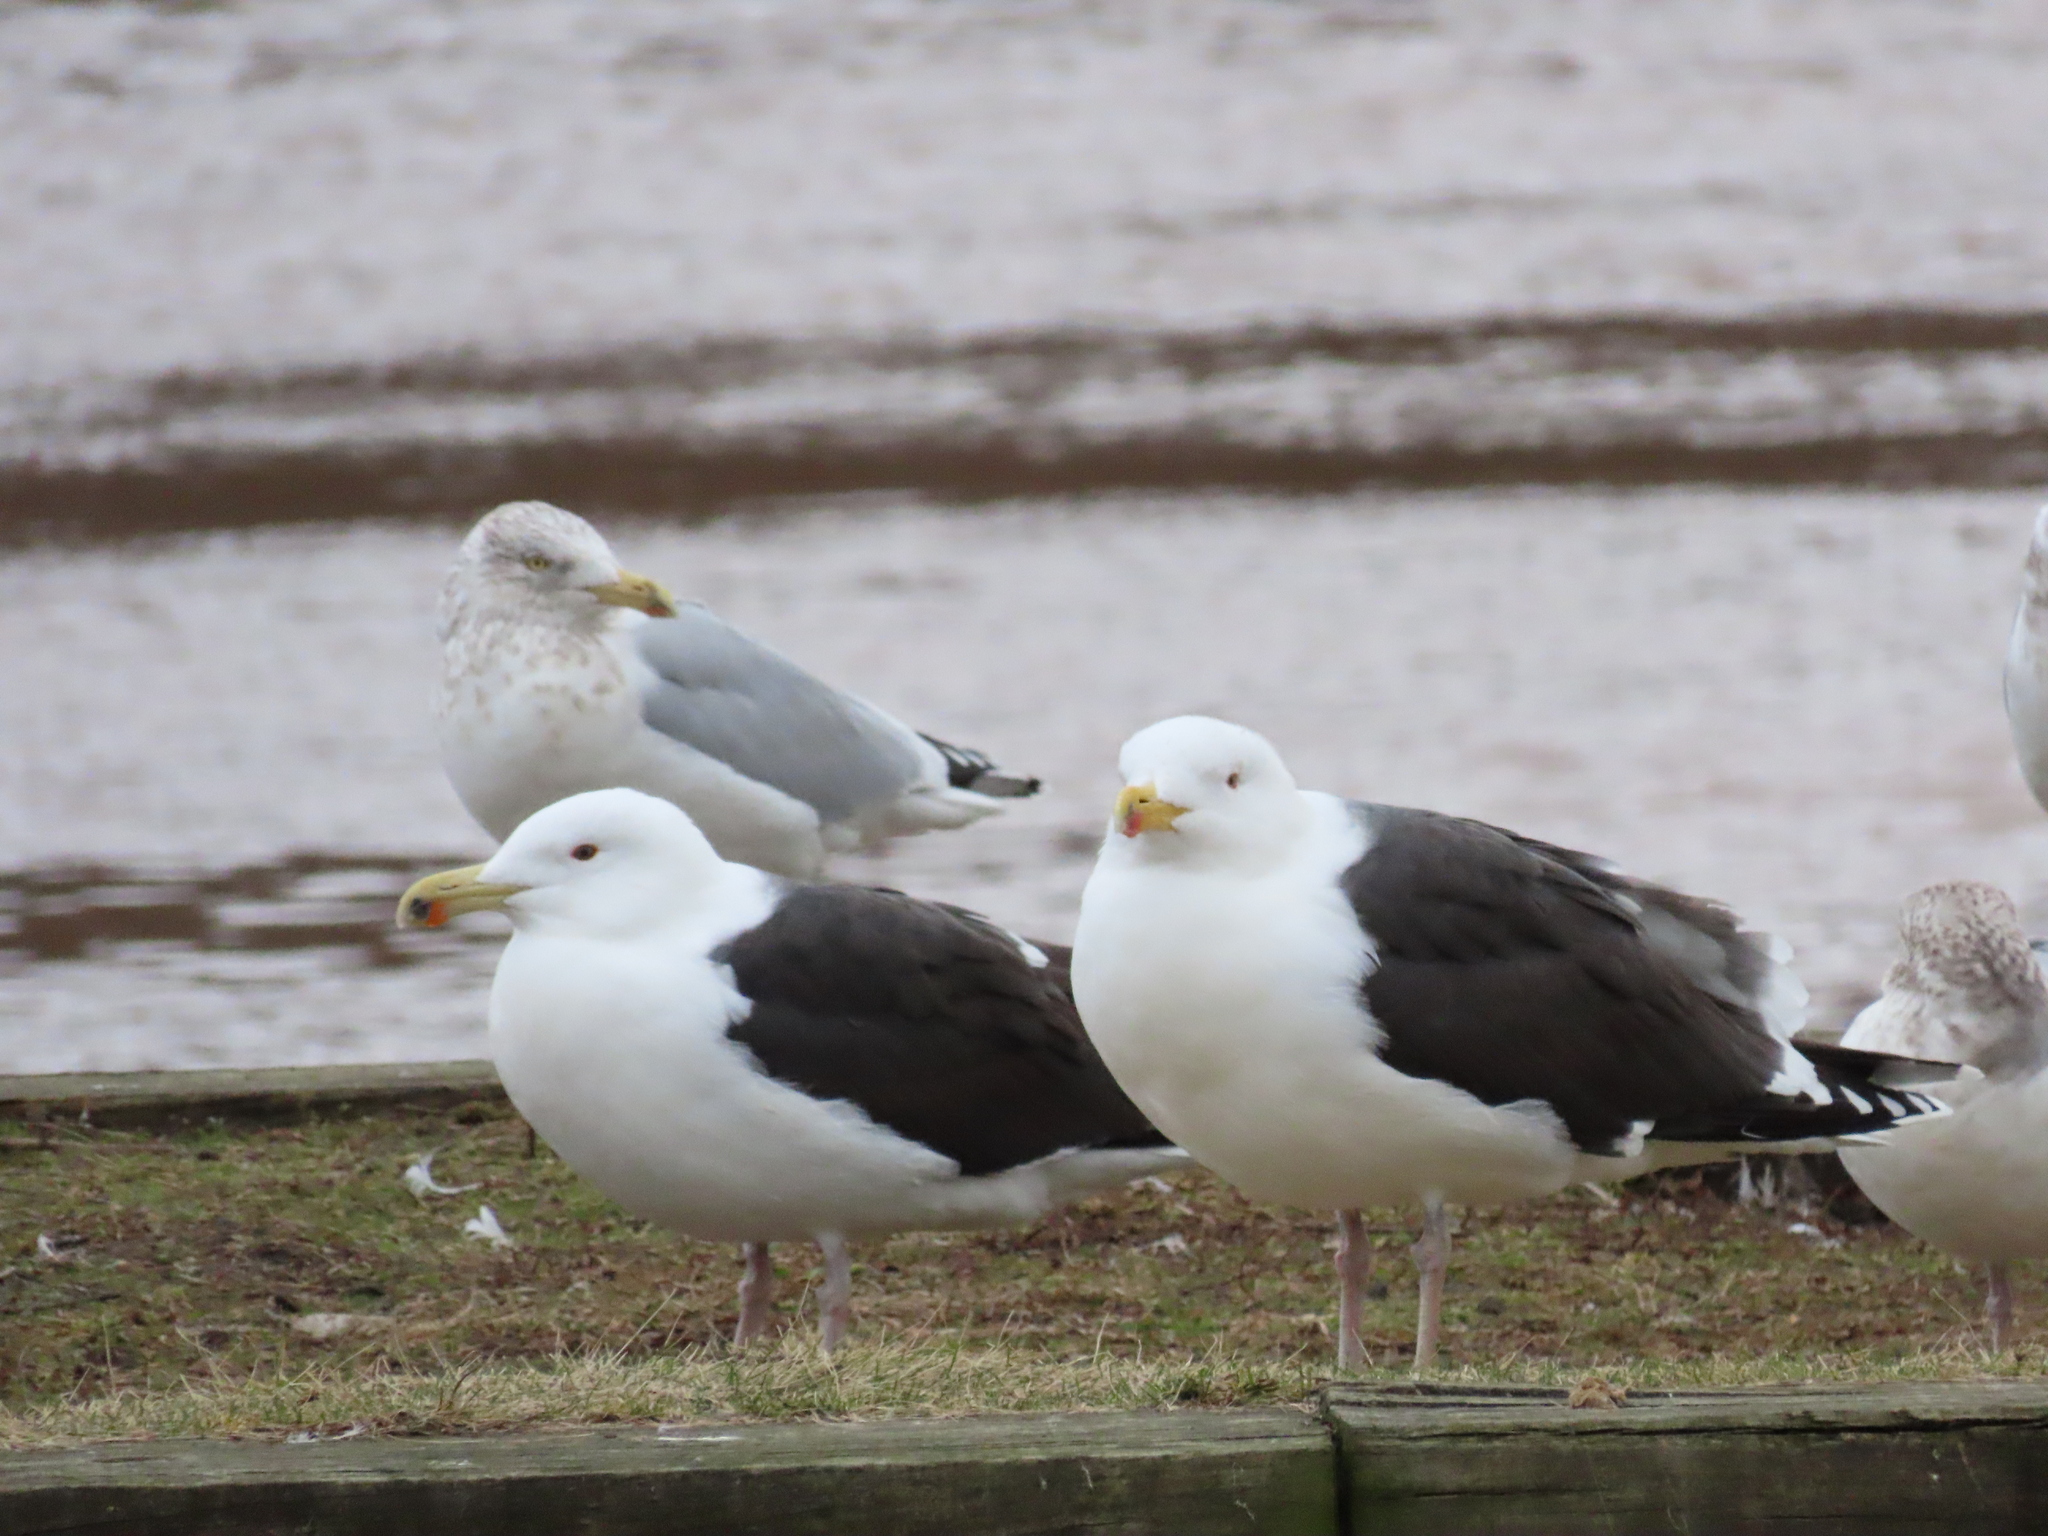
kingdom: Animalia
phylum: Chordata
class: Aves
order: Charadriiformes
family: Laridae
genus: Larus
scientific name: Larus marinus
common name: Great black-backed gull
